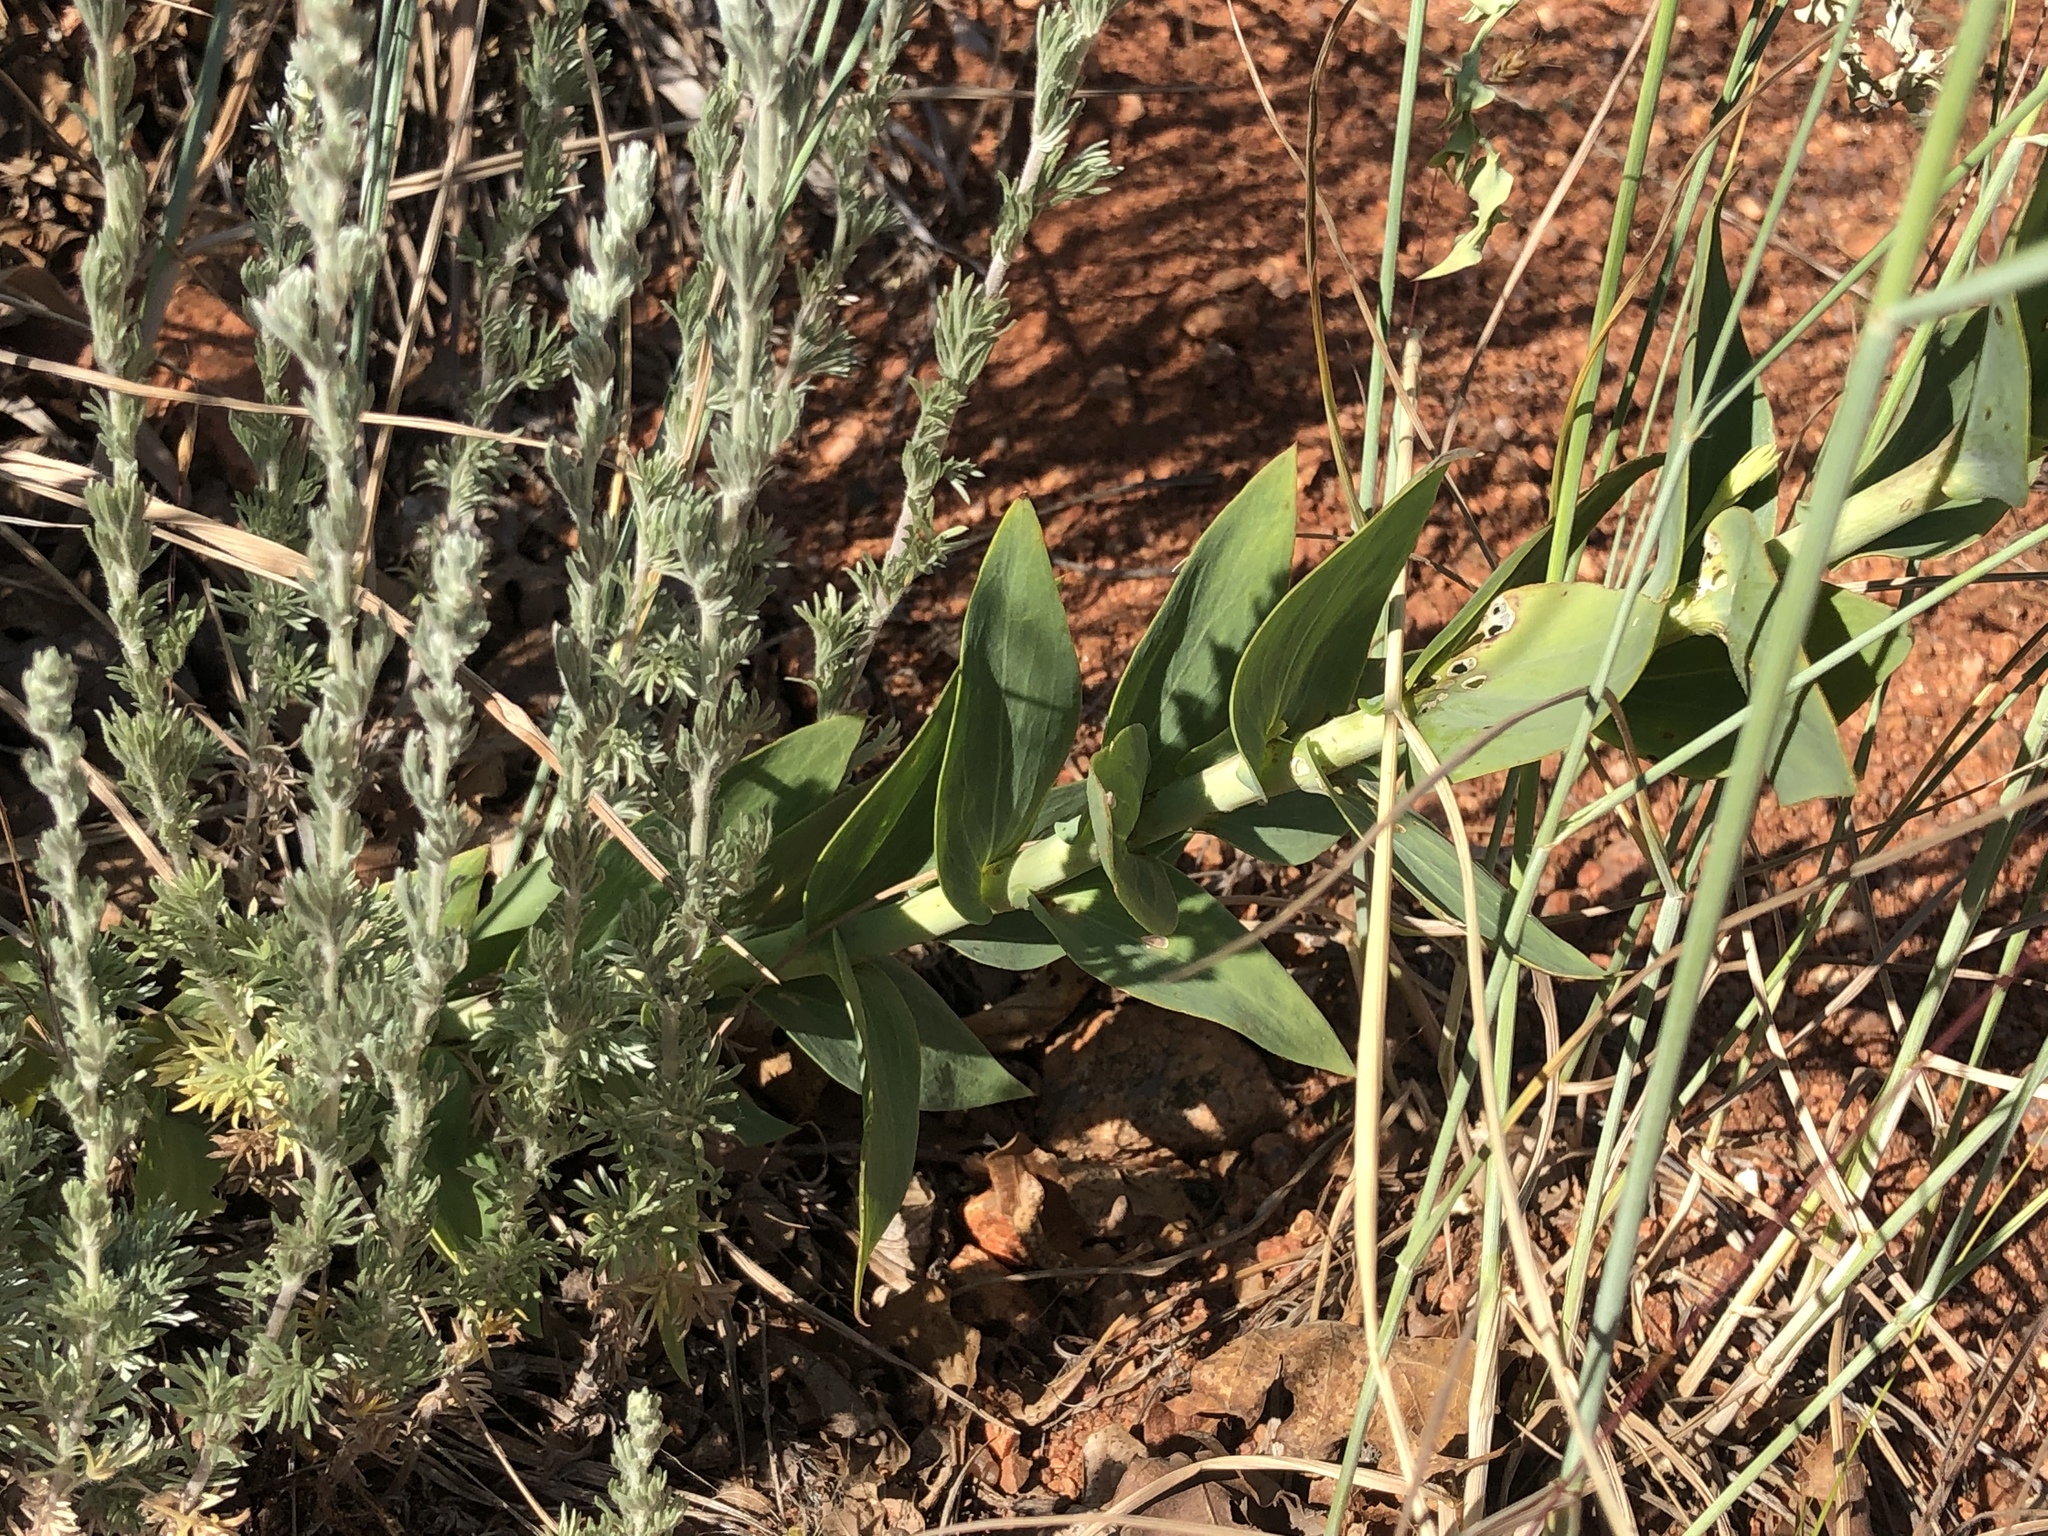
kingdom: Plantae
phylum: Tracheophyta
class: Magnoliopsida
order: Lamiales
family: Plantaginaceae
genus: Linaria
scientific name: Linaria dalmatica
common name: Dalmatian toadflax
